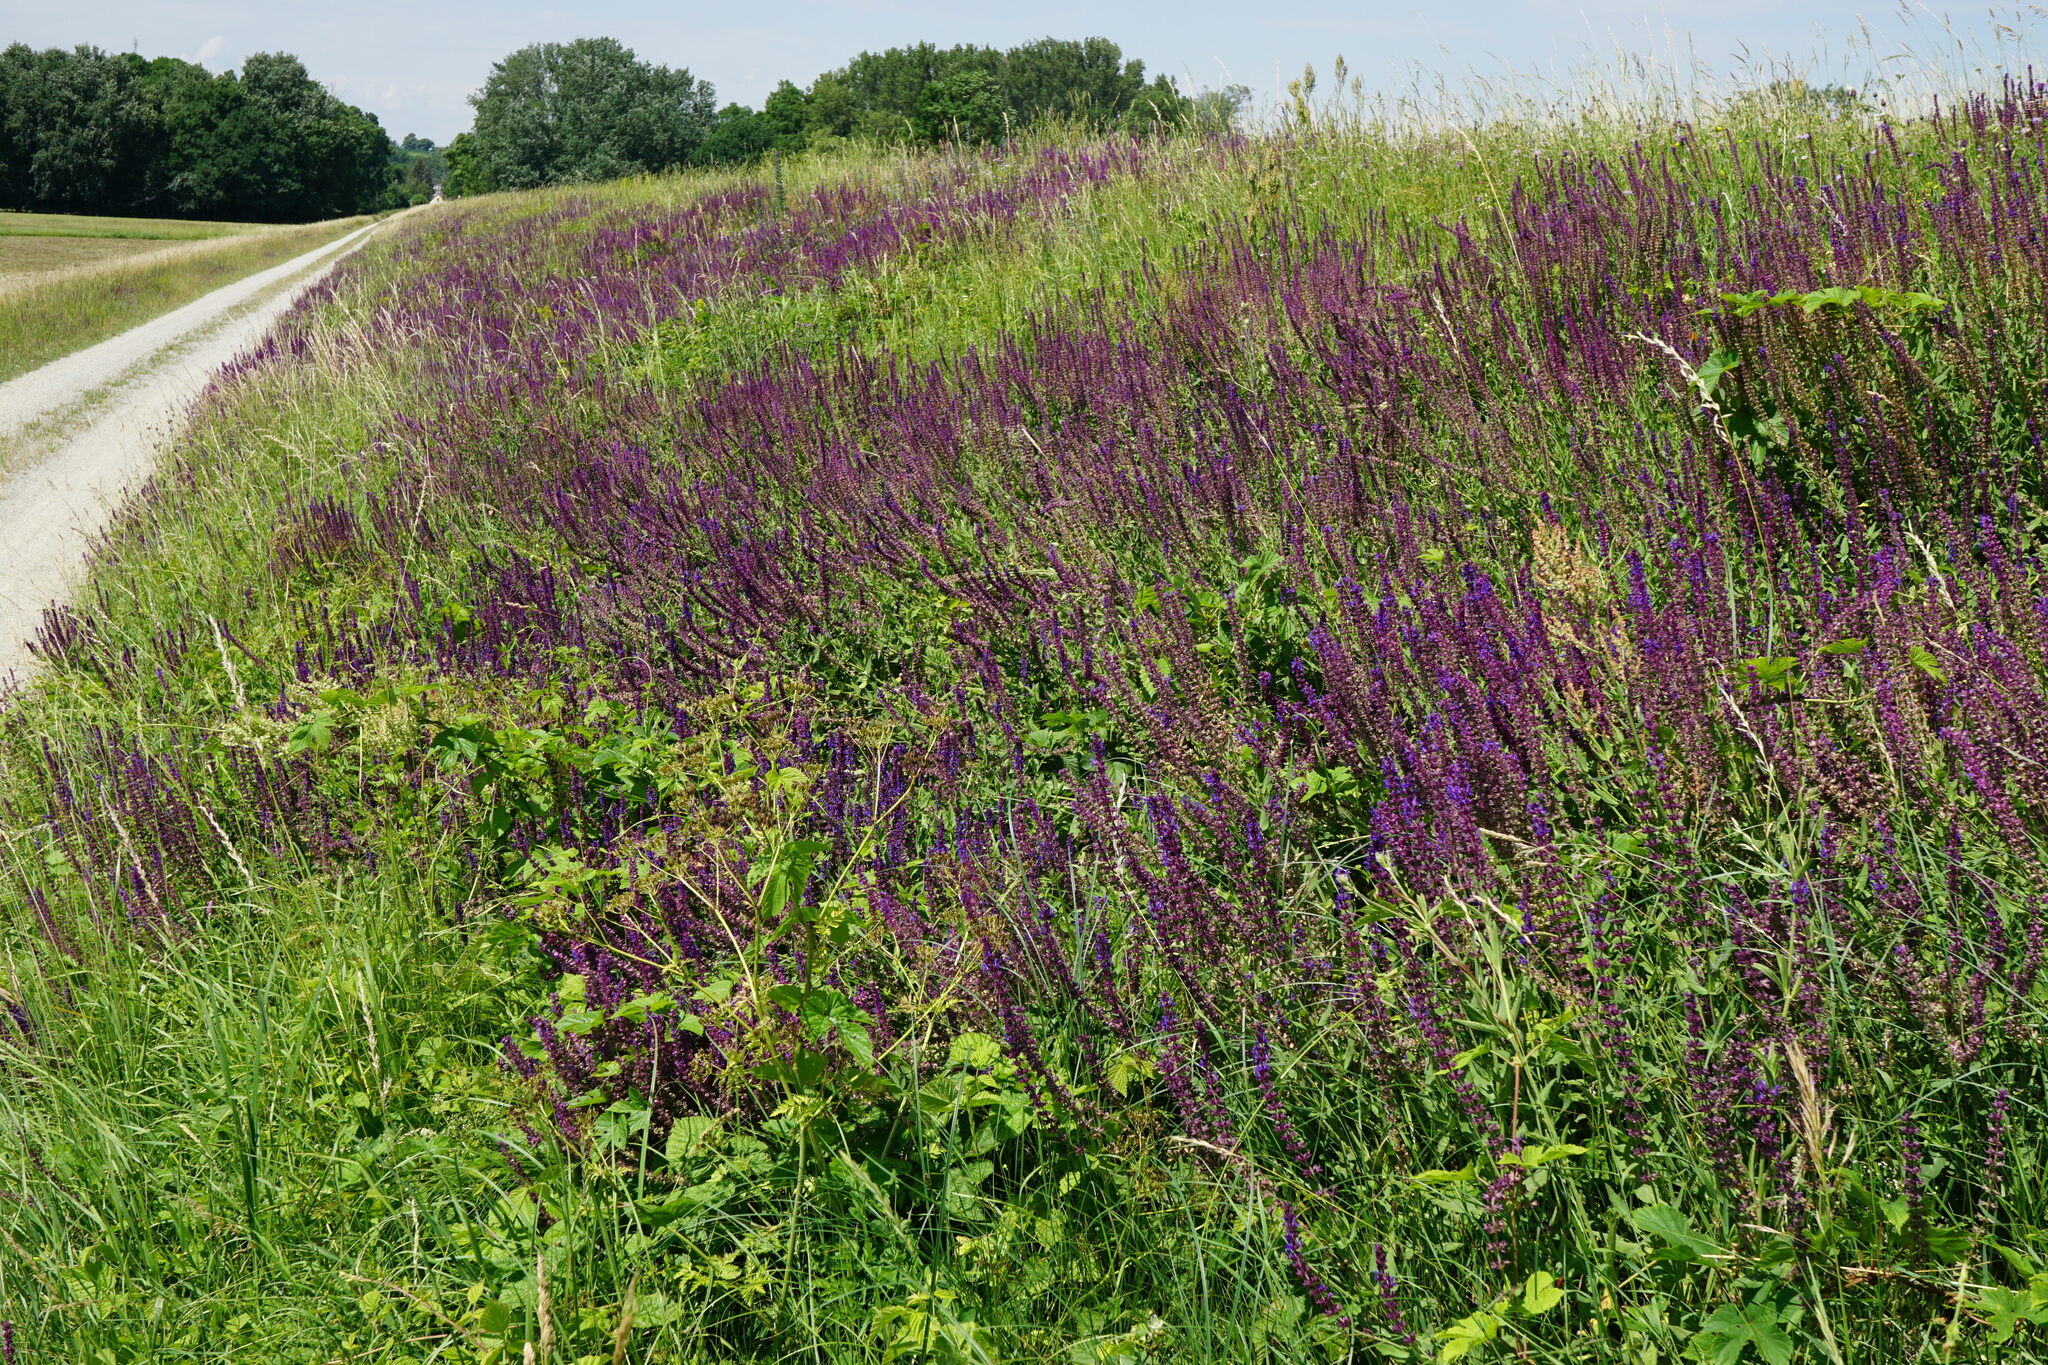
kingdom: Plantae
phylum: Tracheophyta
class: Magnoliopsida
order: Lamiales
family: Lamiaceae
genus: Salvia
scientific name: Salvia nemorosa
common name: Balkan clary
